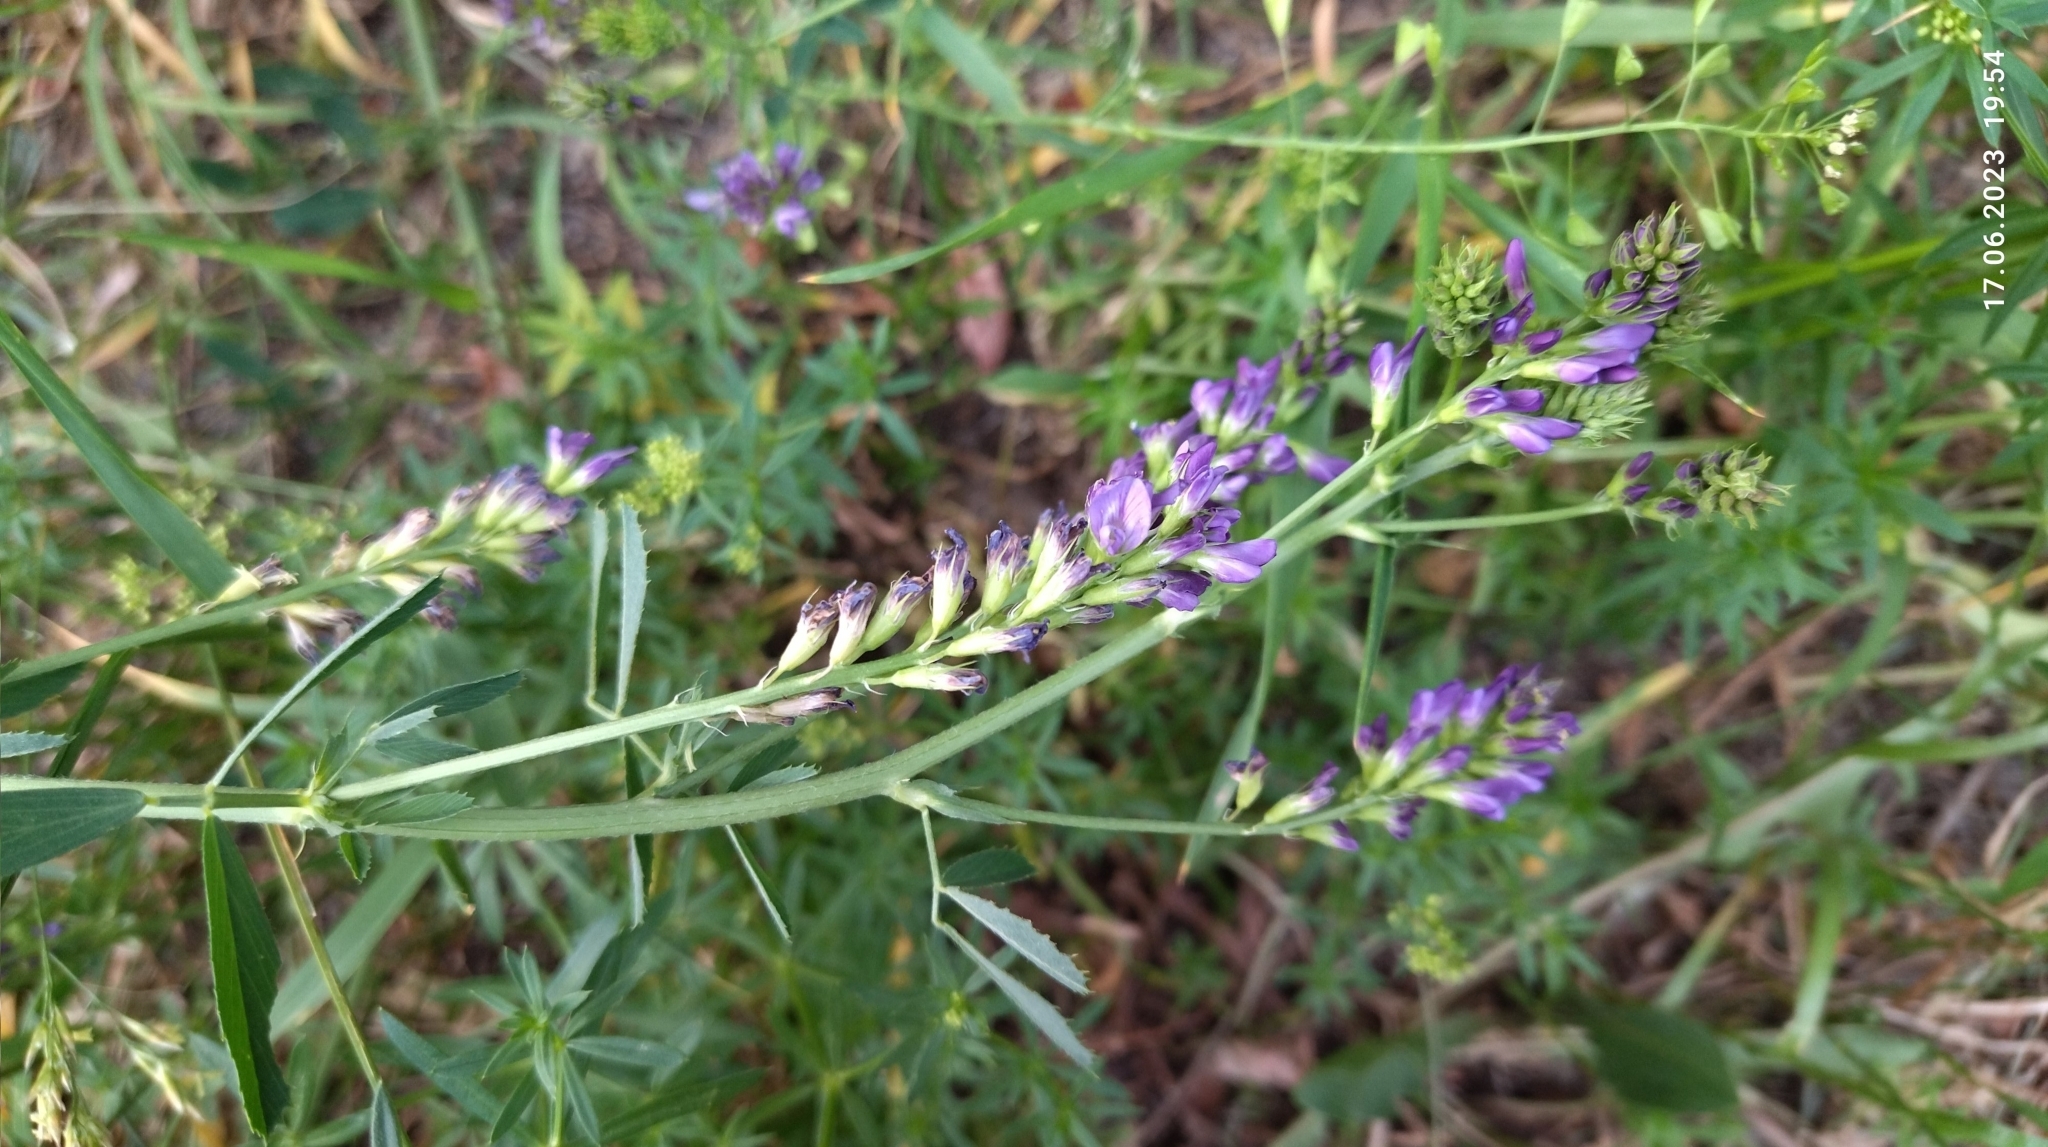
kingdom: Plantae
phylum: Tracheophyta
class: Magnoliopsida
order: Fabales
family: Fabaceae
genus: Medicago
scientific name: Medicago varia
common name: Sand lucerne
